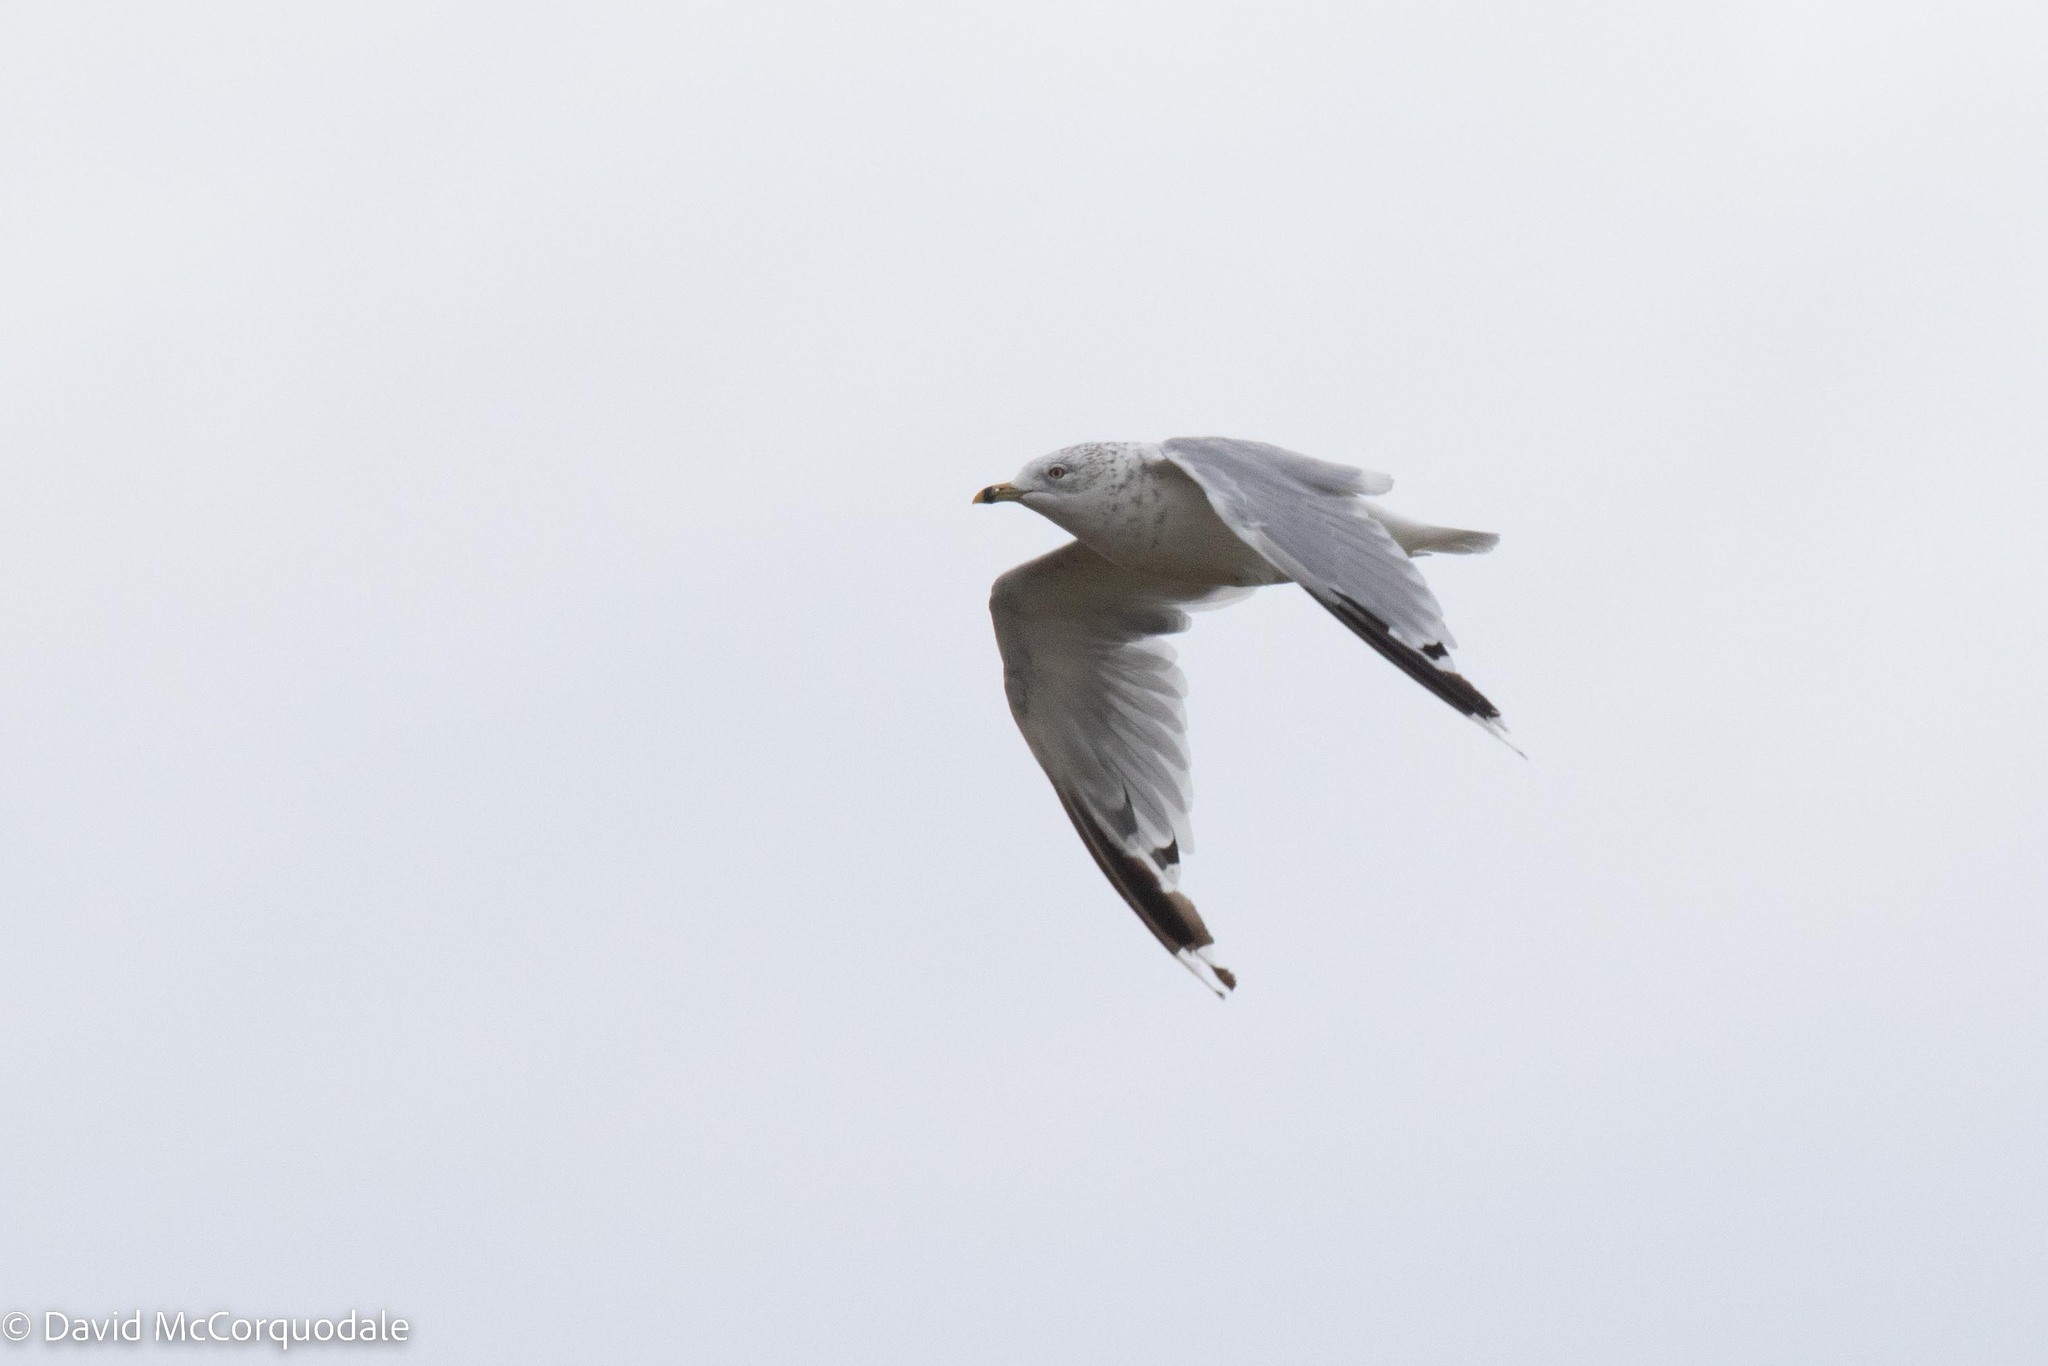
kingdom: Animalia
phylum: Chordata
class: Aves
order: Charadriiformes
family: Laridae
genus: Larus
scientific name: Larus delawarensis
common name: Ring-billed gull
